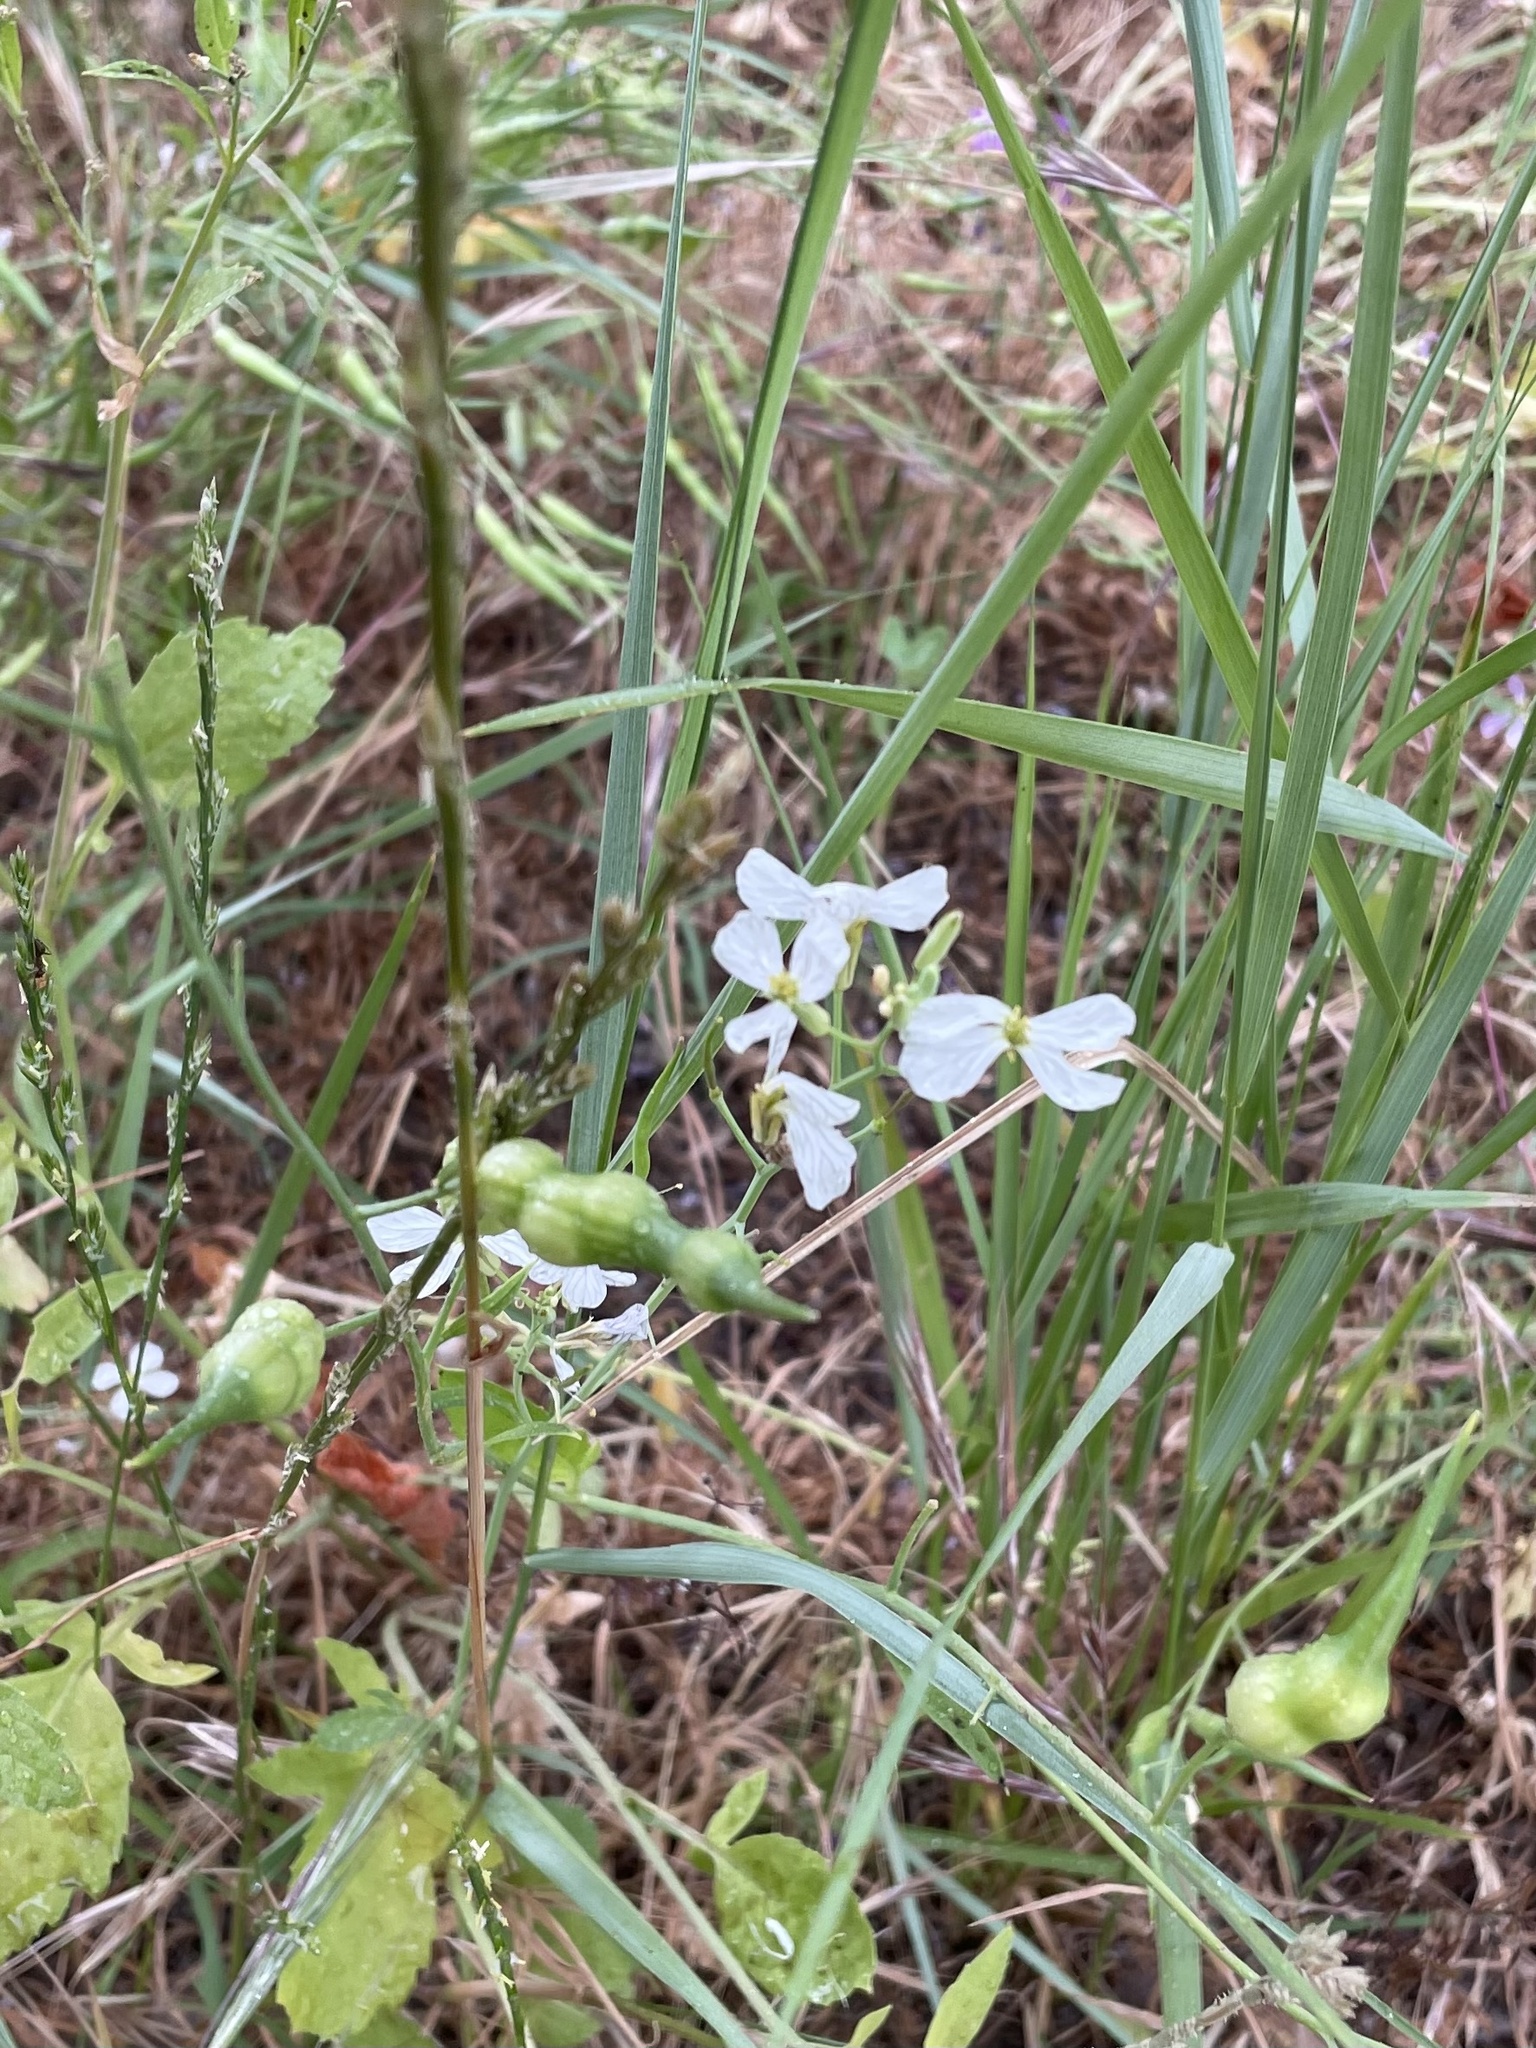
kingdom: Plantae
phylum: Tracheophyta
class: Magnoliopsida
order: Brassicales
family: Brassicaceae
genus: Raphanus
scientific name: Raphanus sativus
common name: Cultivated radish
